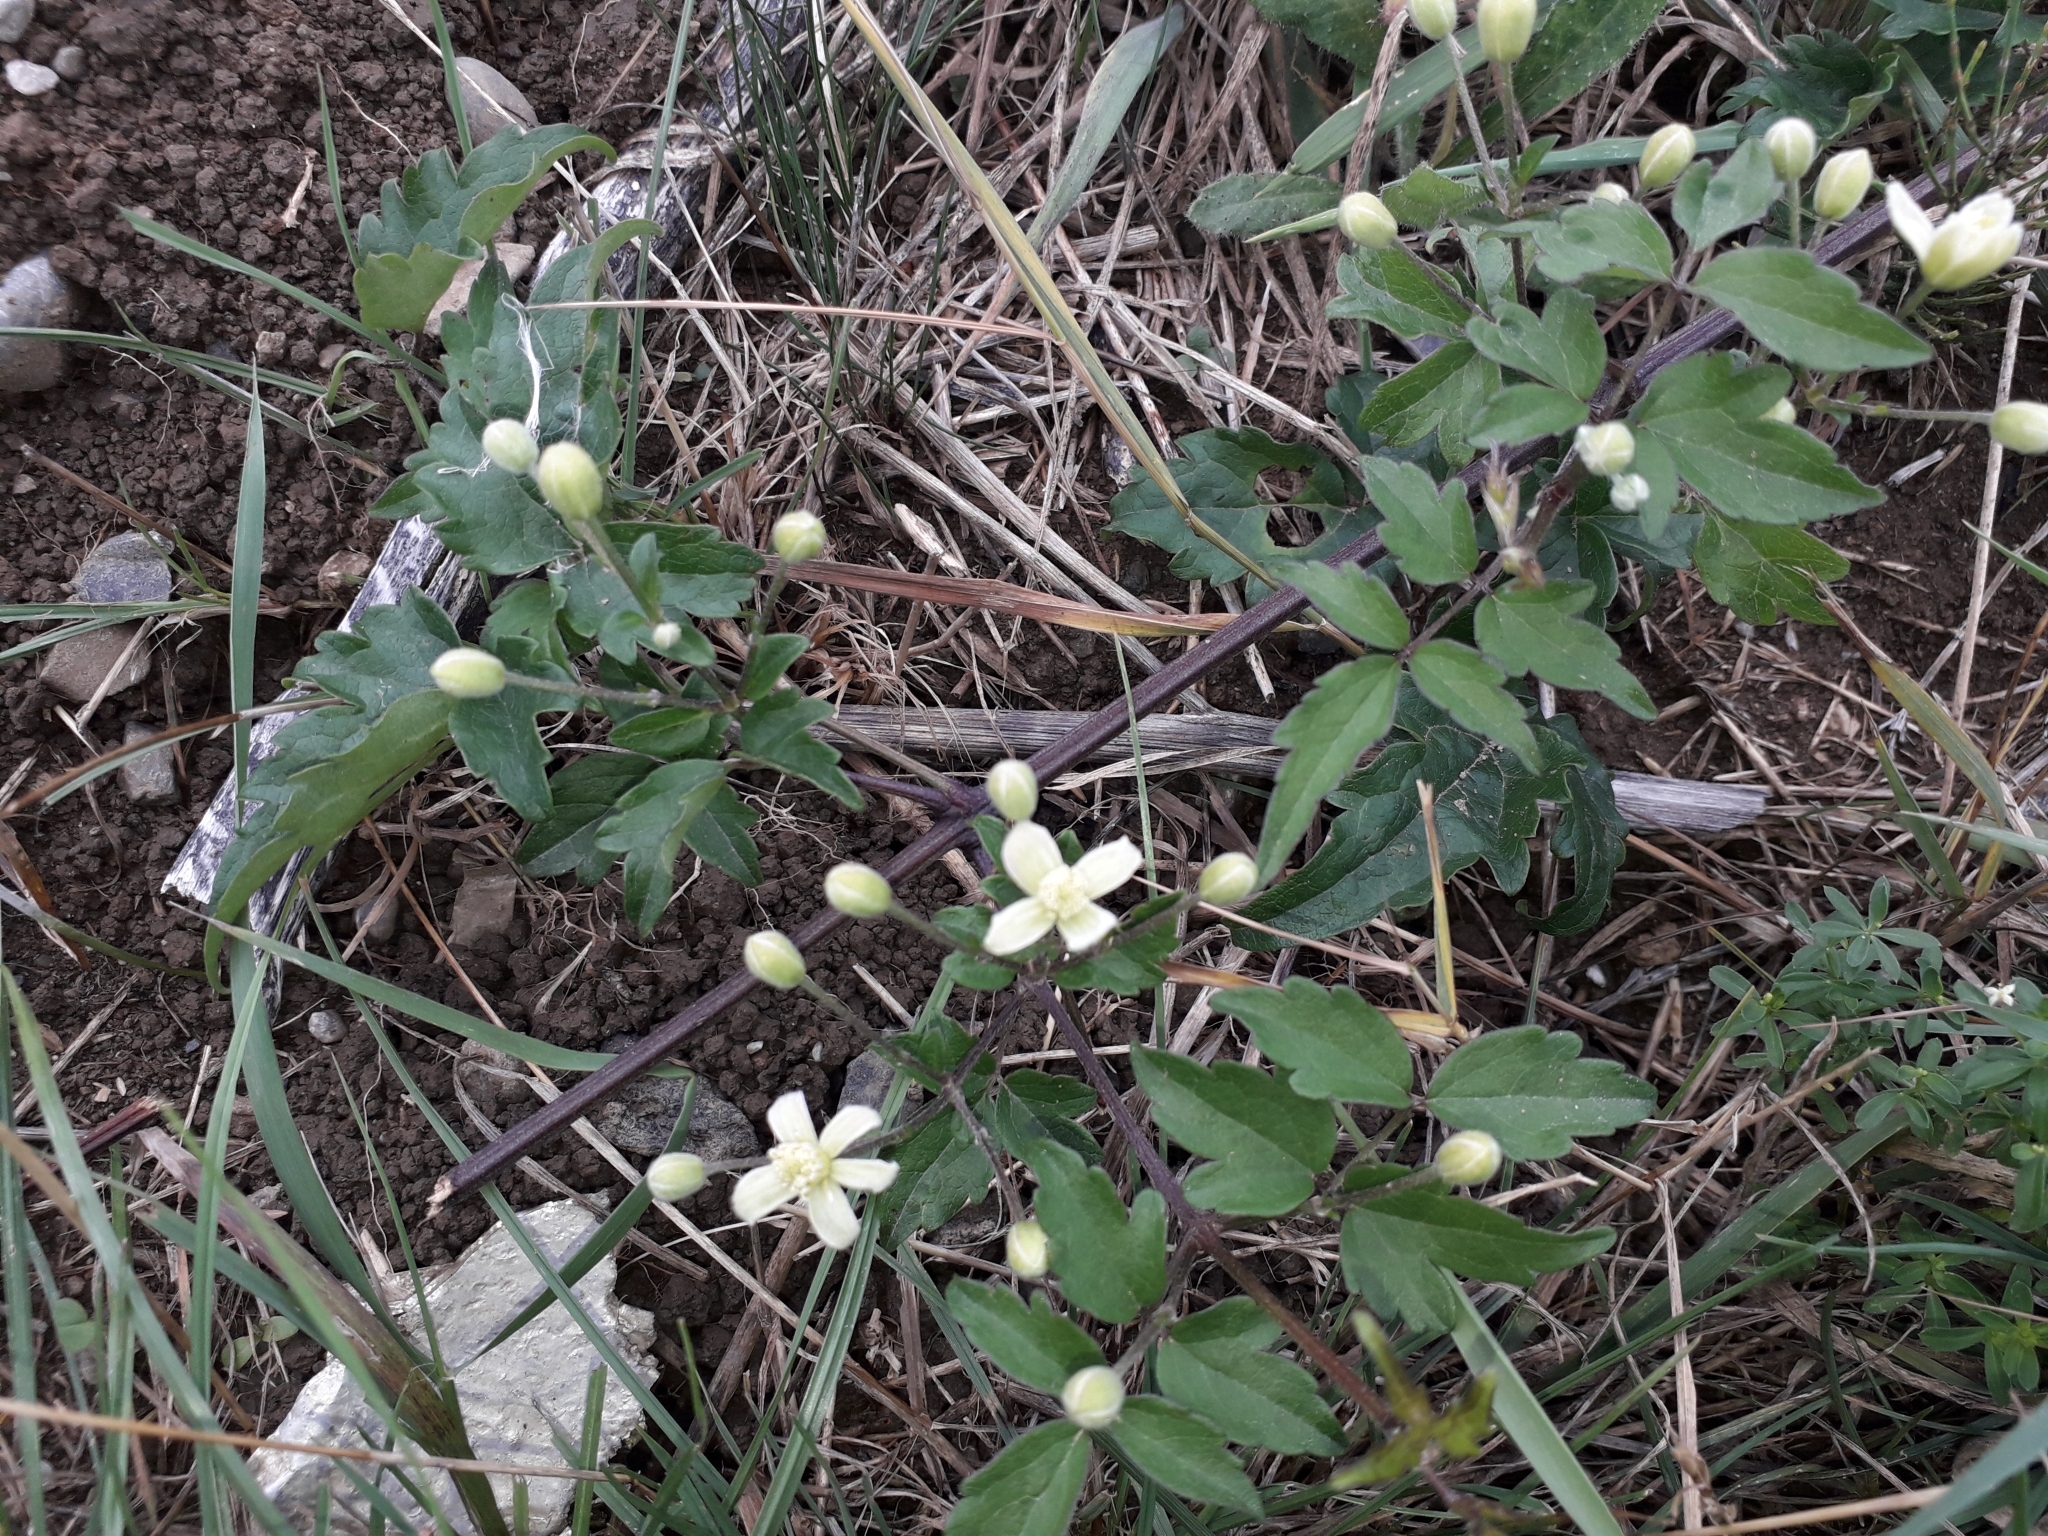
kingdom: Plantae
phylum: Tracheophyta
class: Magnoliopsida
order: Ranunculales
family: Ranunculaceae
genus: Clematis
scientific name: Clematis vitalba
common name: Evergreen clematis
